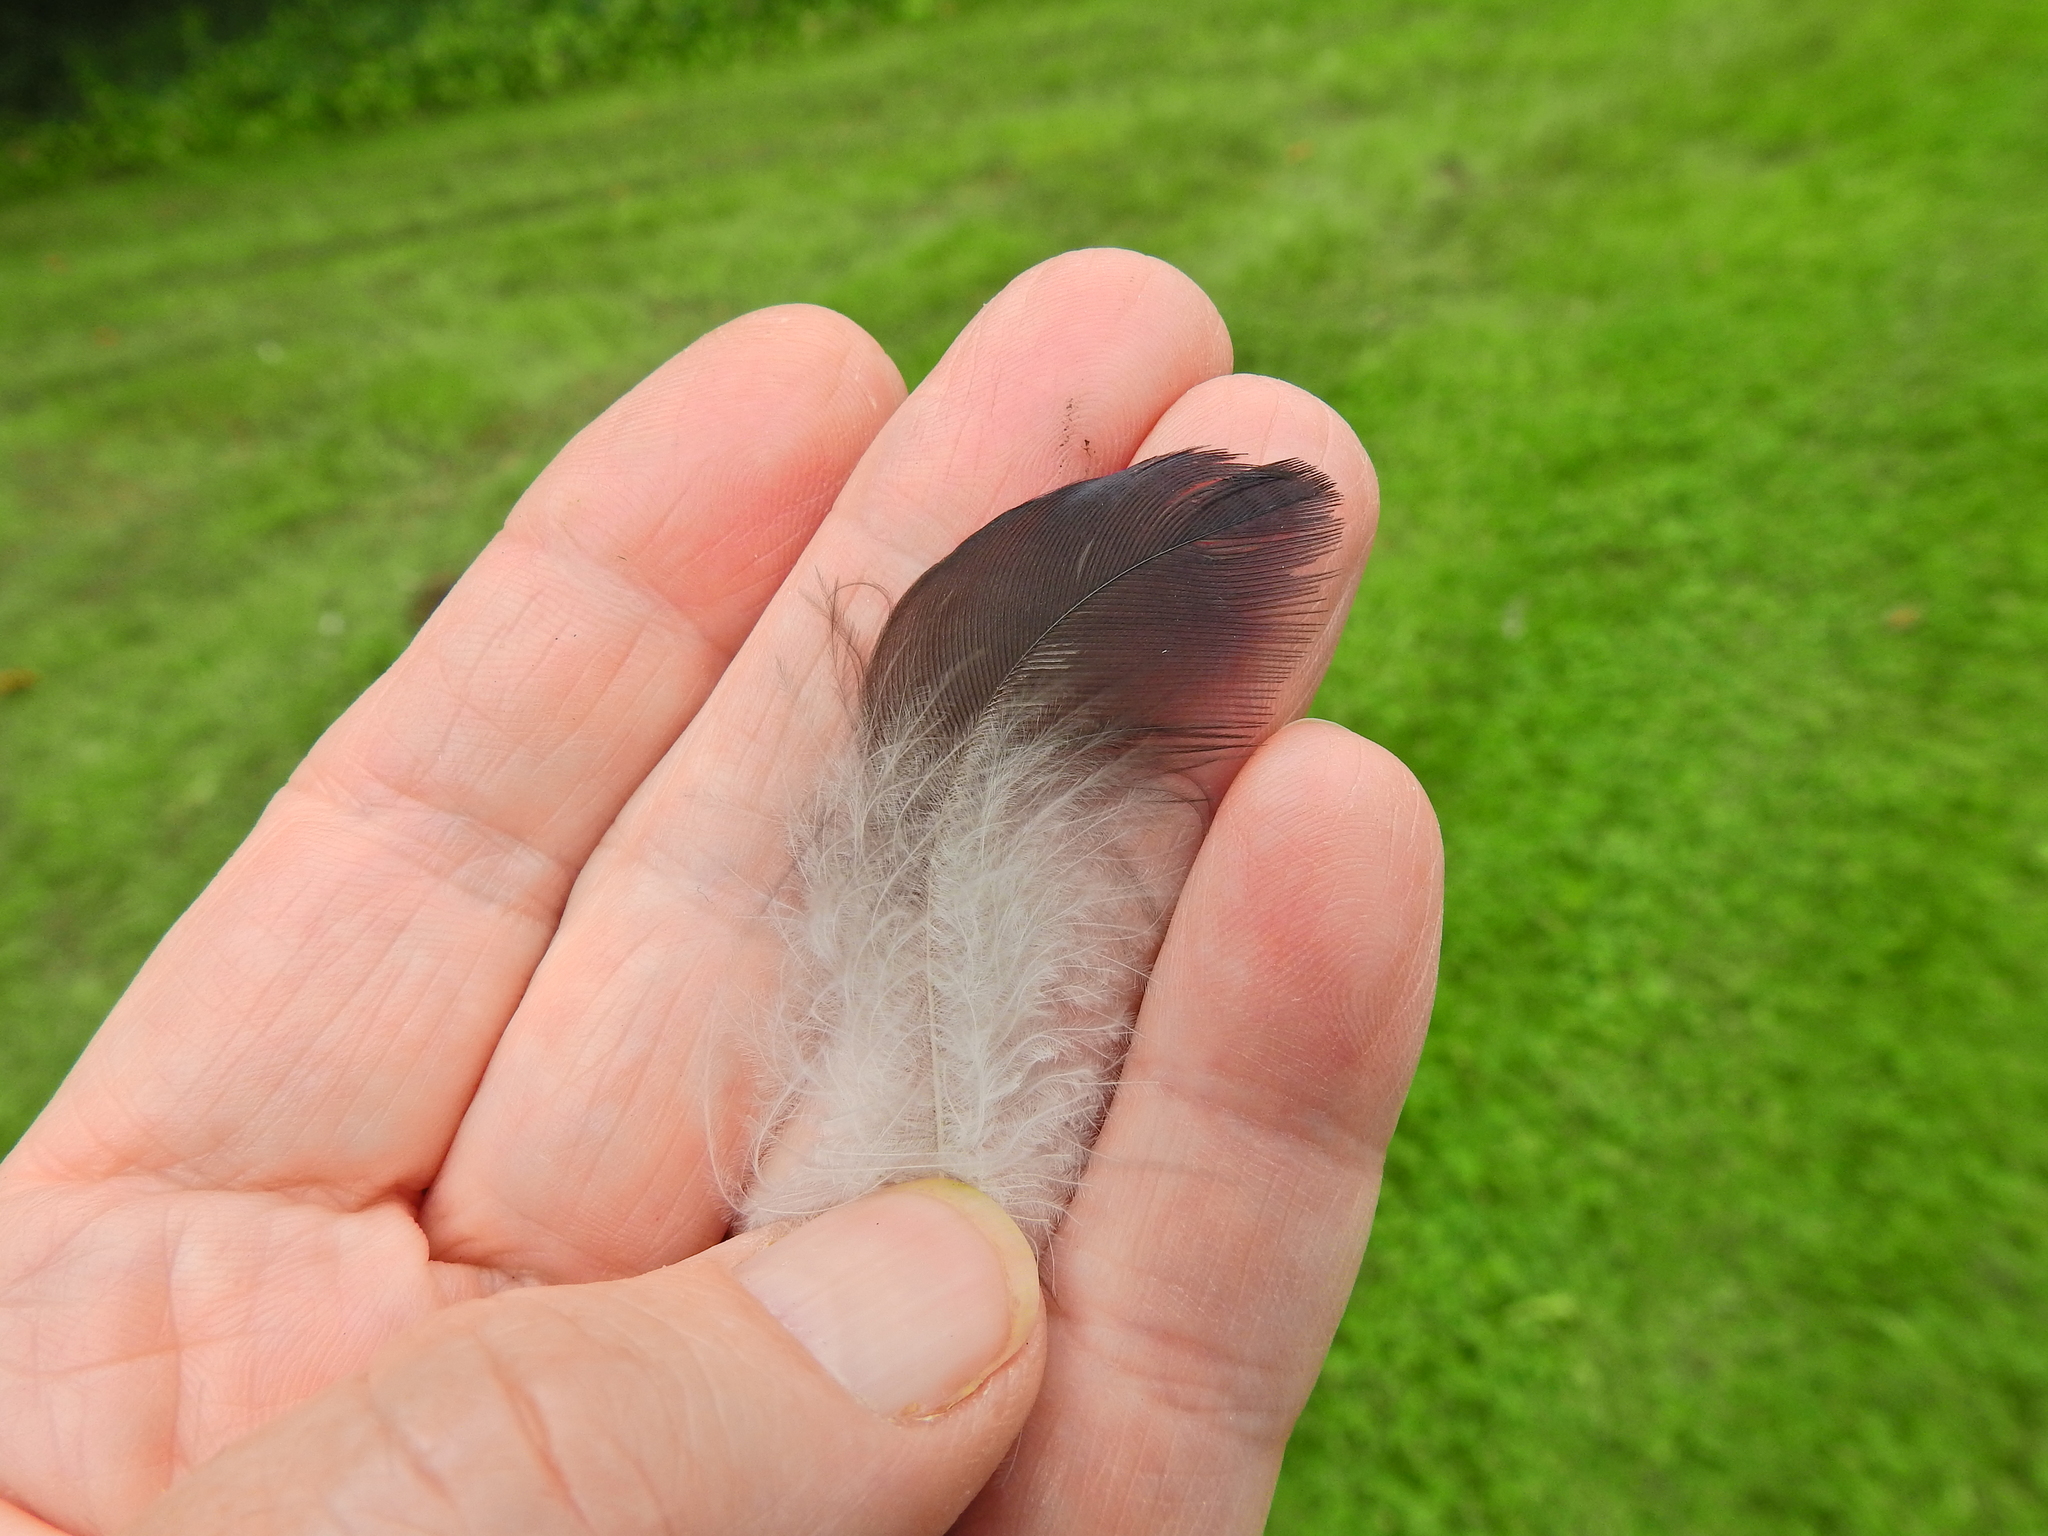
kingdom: Animalia
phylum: Chordata
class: Aves
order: Passeriformes
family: Corvidae
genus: Corvus
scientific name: Corvus corone
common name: Carrion crow
